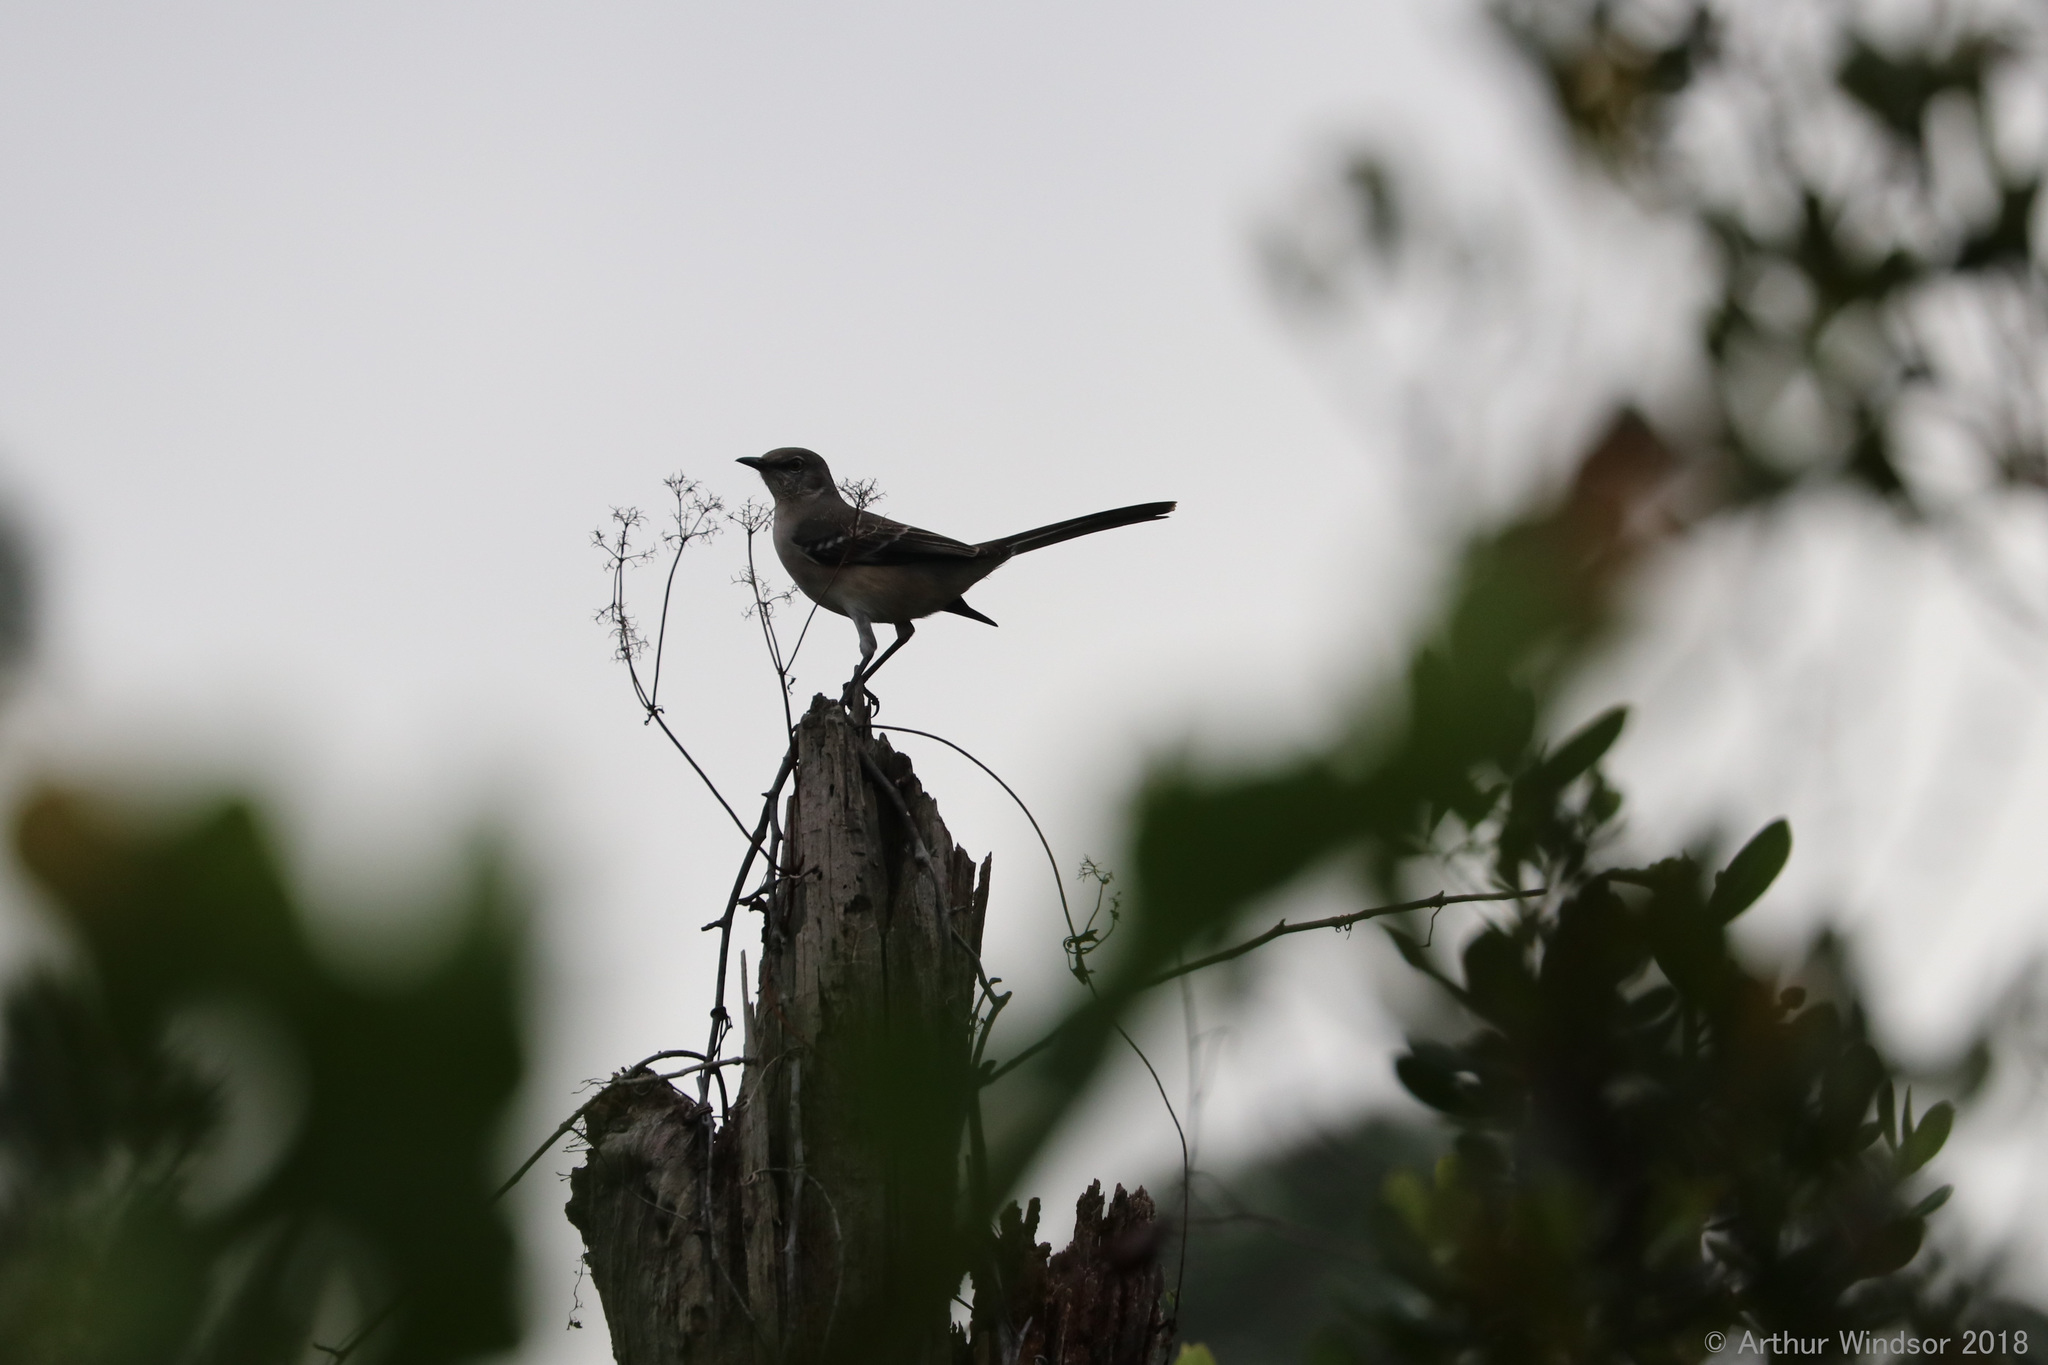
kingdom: Animalia
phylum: Chordata
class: Aves
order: Passeriformes
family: Mimidae
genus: Mimus
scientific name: Mimus polyglottos
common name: Northern mockingbird
